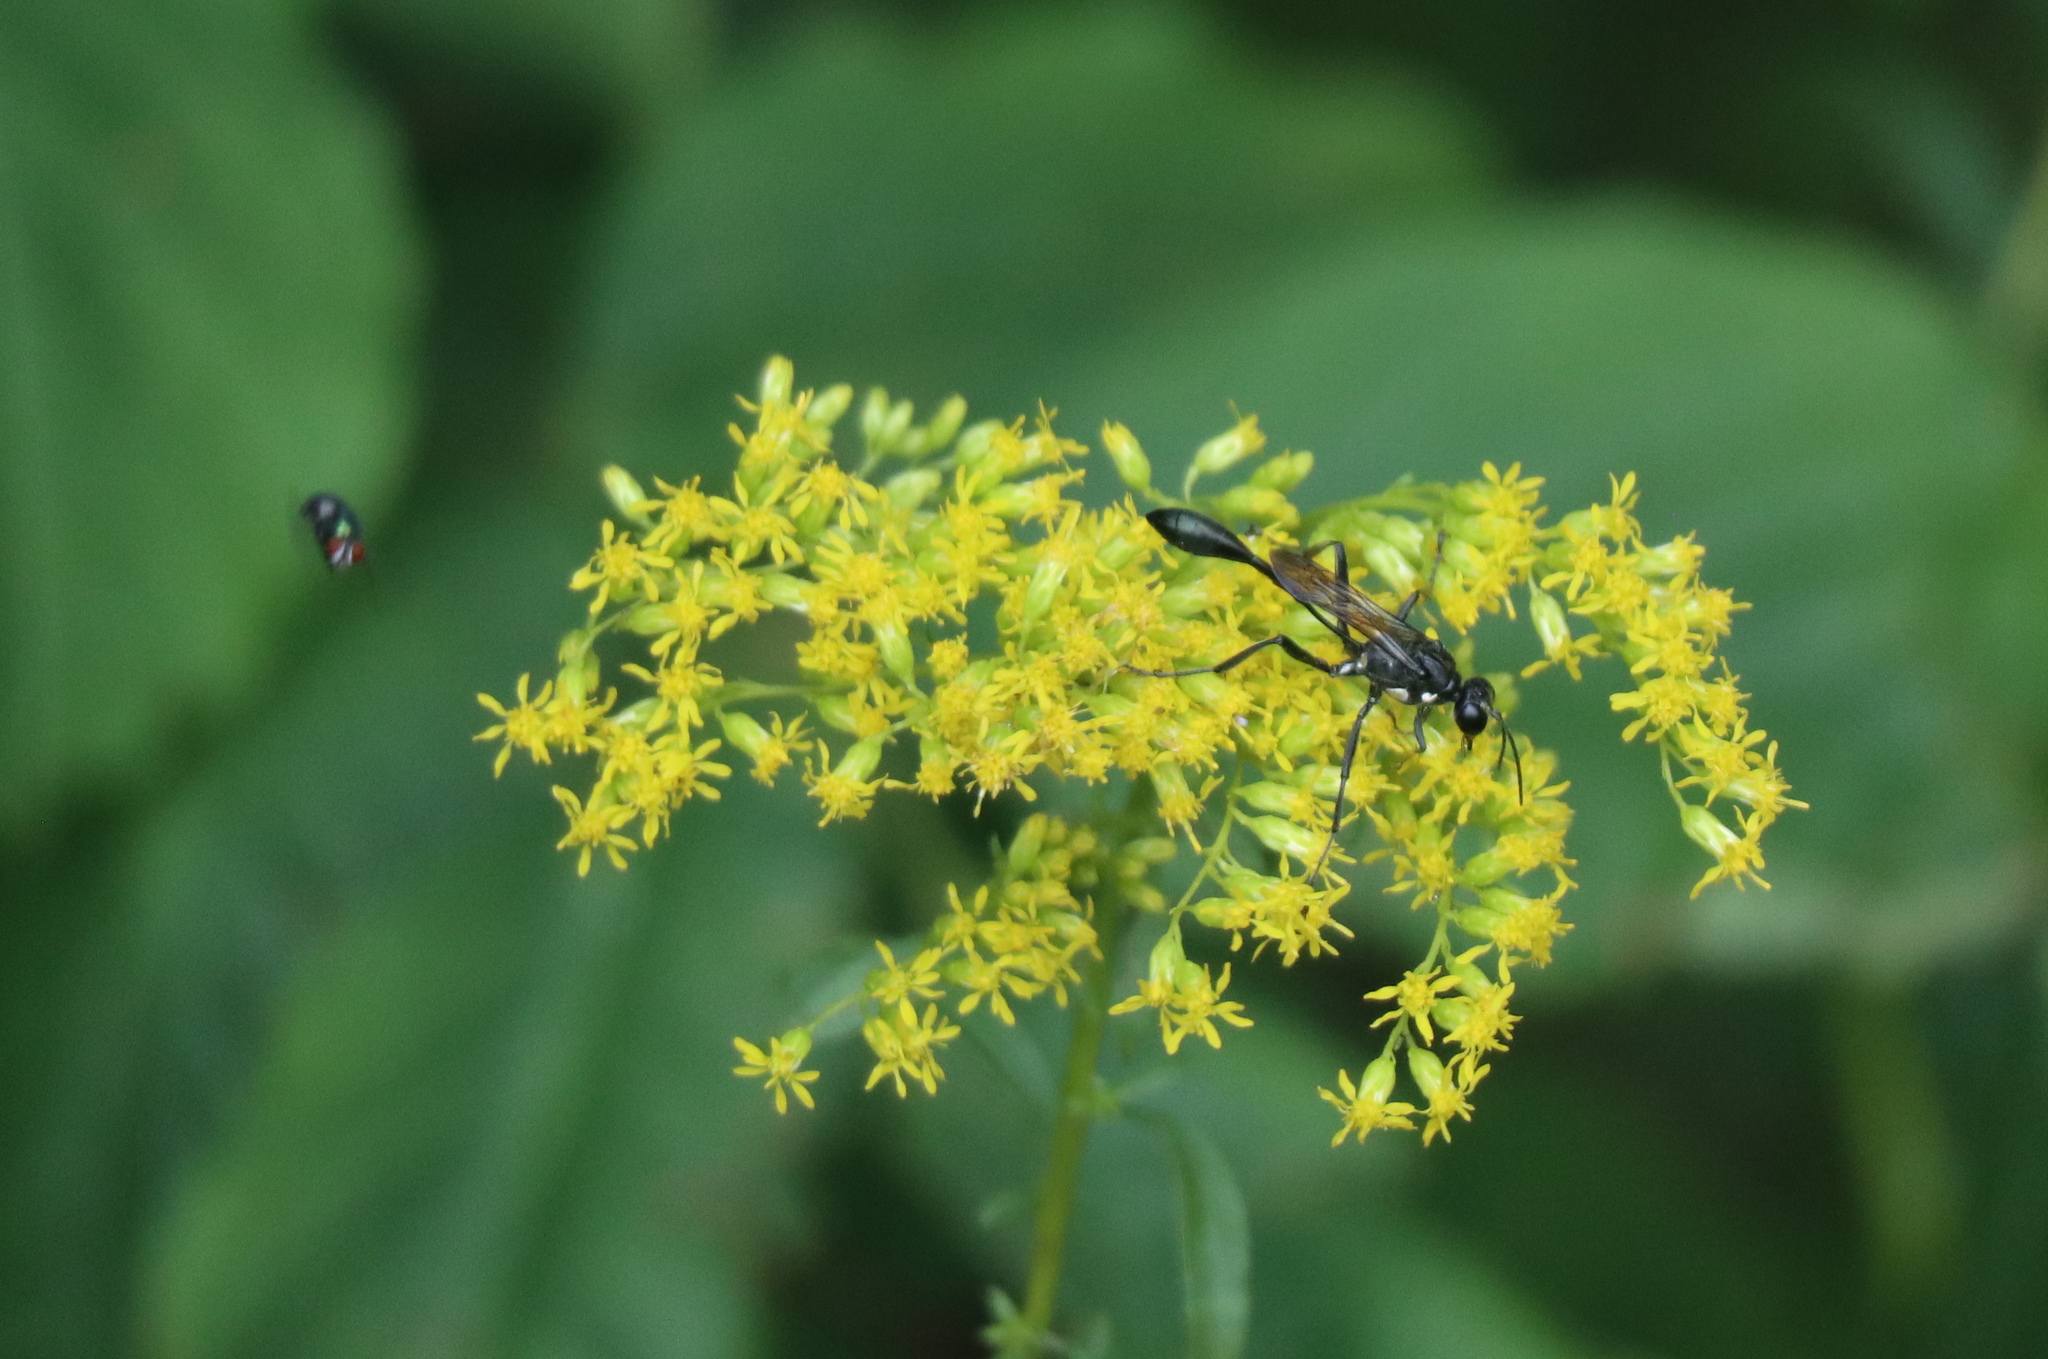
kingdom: Animalia
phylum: Arthropoda
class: Insecta
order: Hymenoptera
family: Sphecidae
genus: Eremnophila
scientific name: Eremnophila aureonotata
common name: Gold-marked thread-waisted wasp
